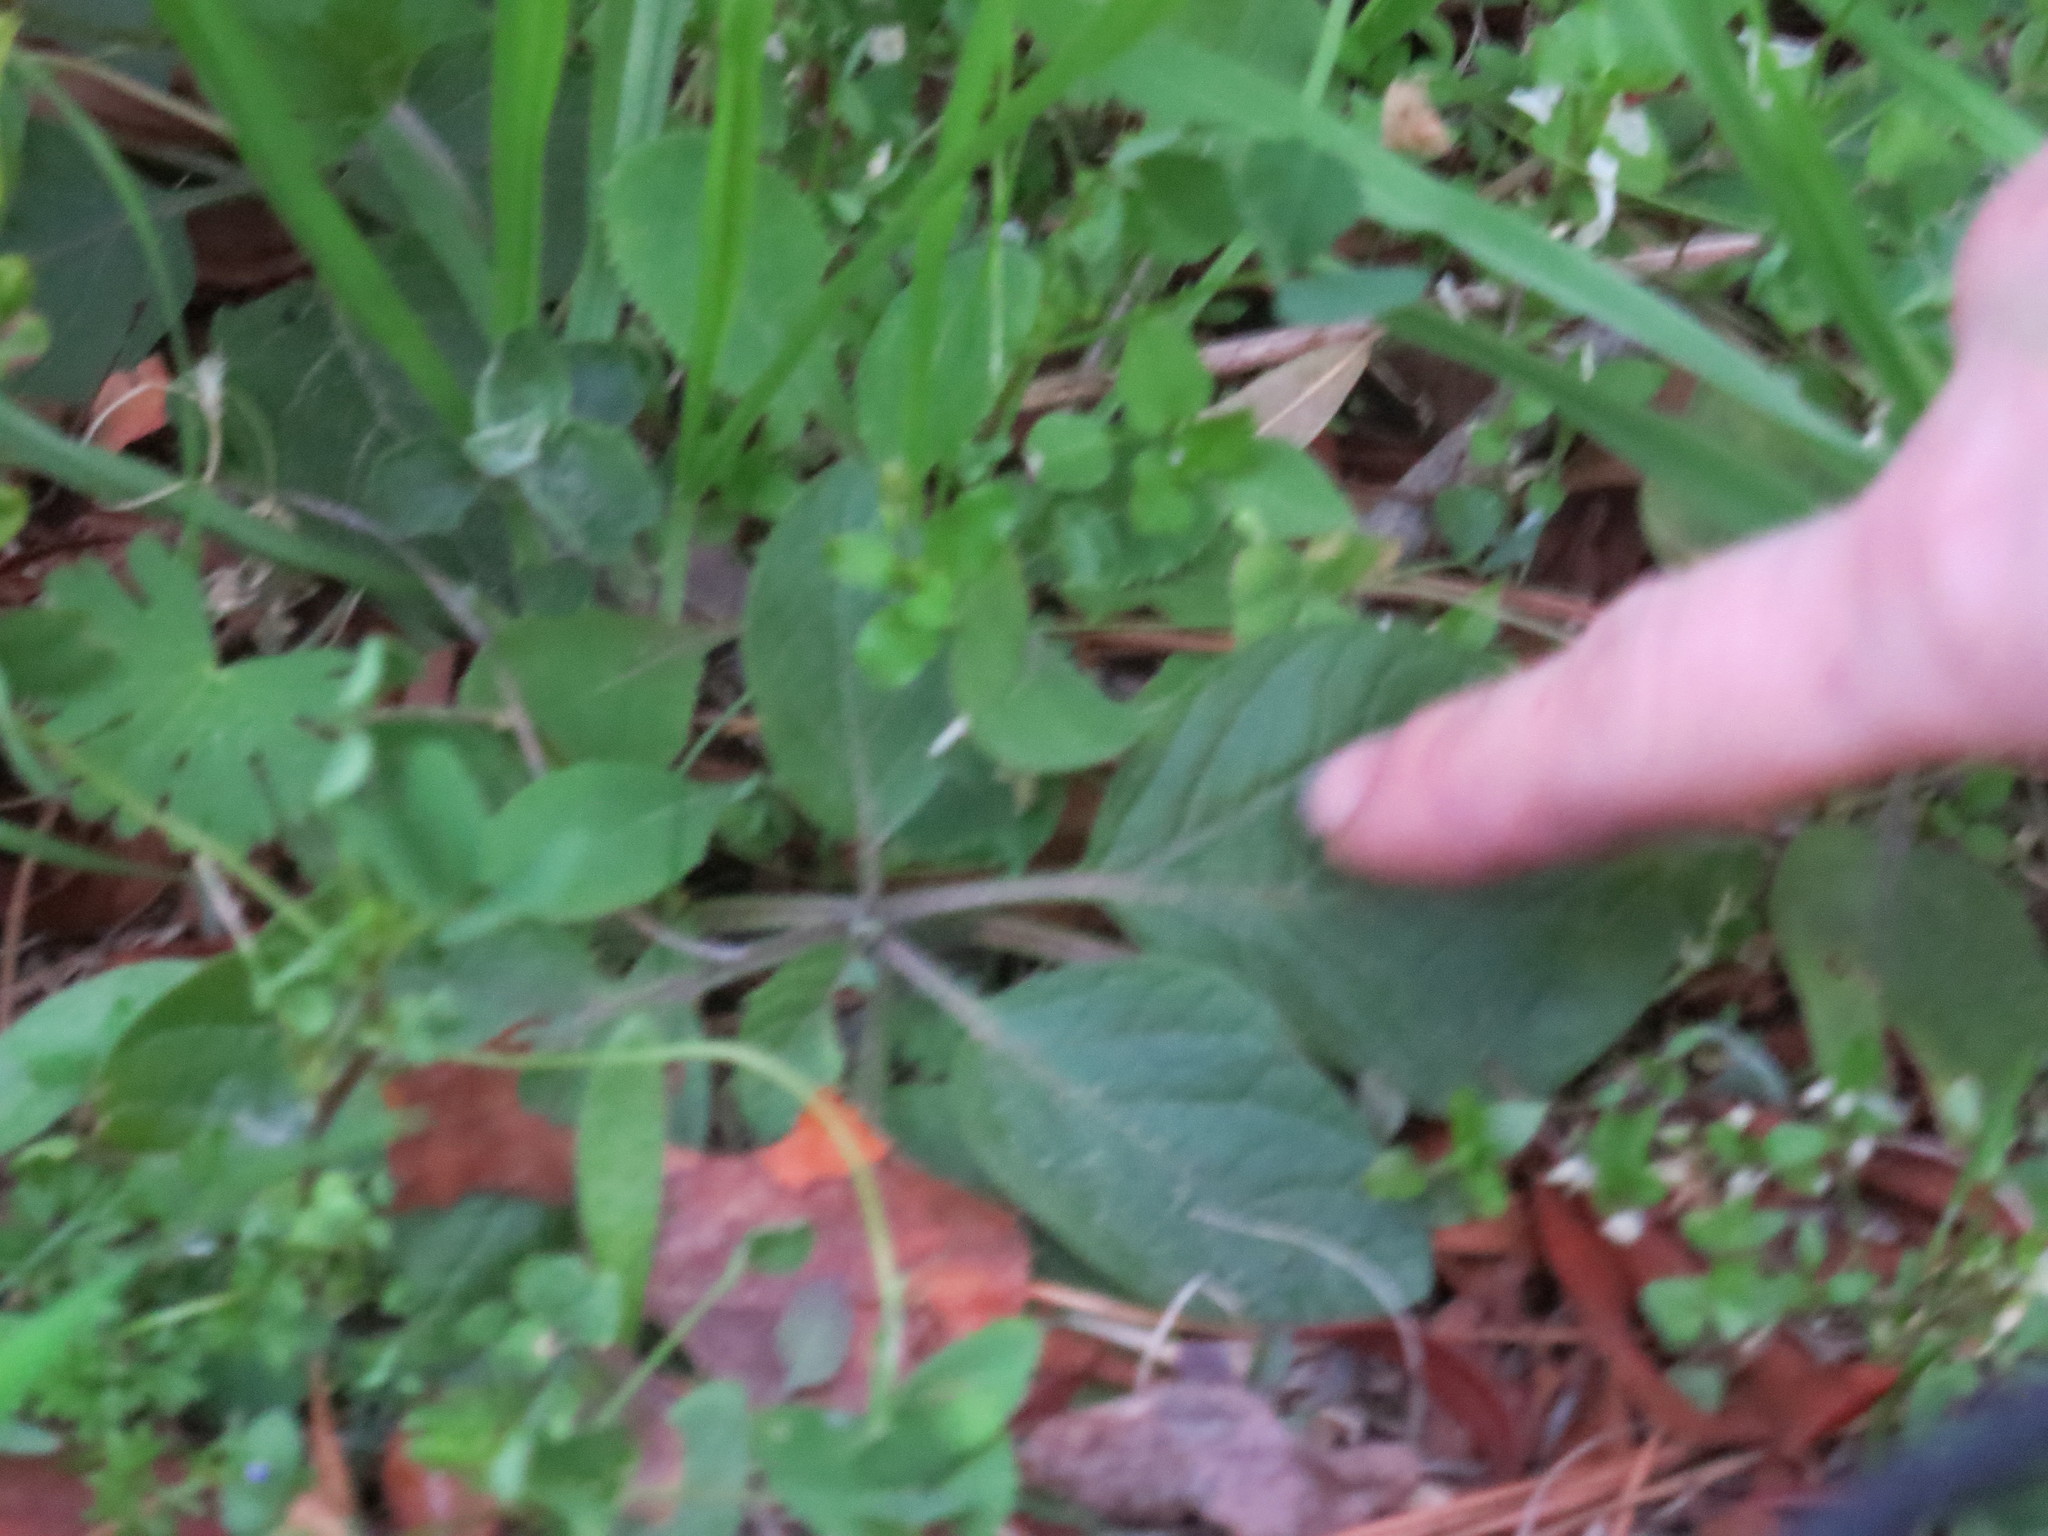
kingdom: Plantae
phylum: Tracheophyta
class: Magnoliopsida
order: Solanales
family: Solanaceae
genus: Physalis
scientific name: Physalis walteri
